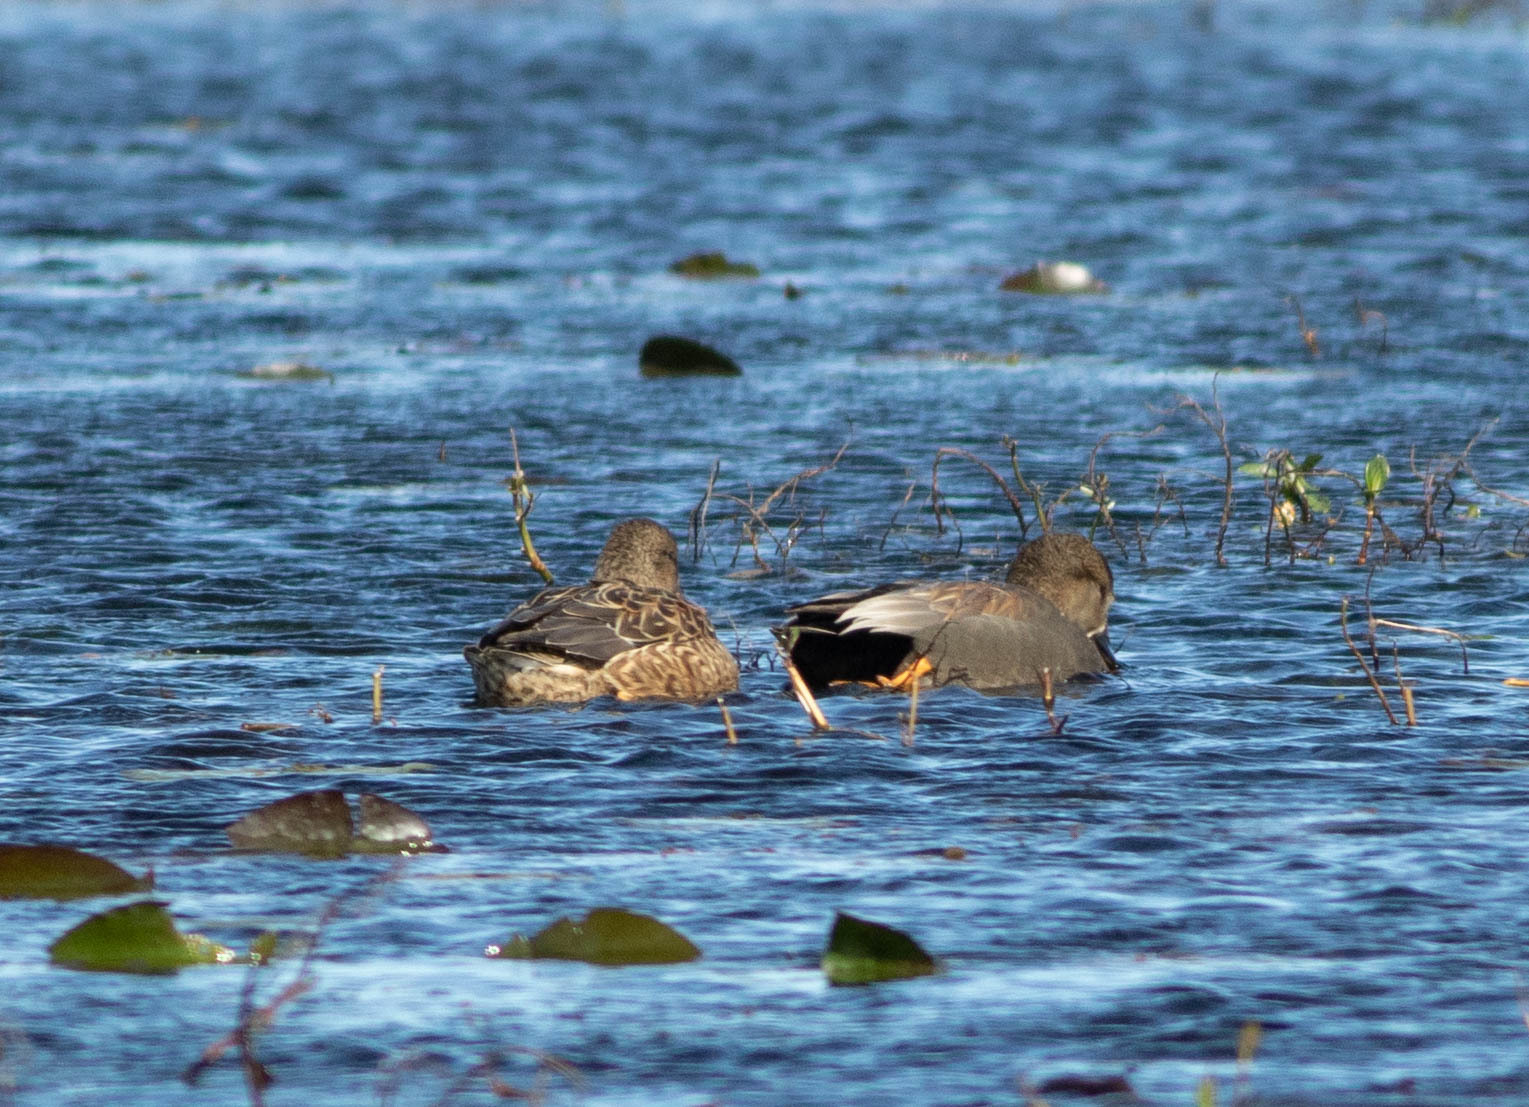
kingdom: Animalia
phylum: Chordata
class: Aves
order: Anseriformes
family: Anatidae
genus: Mareca
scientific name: Mareca strepera
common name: Gadwall
